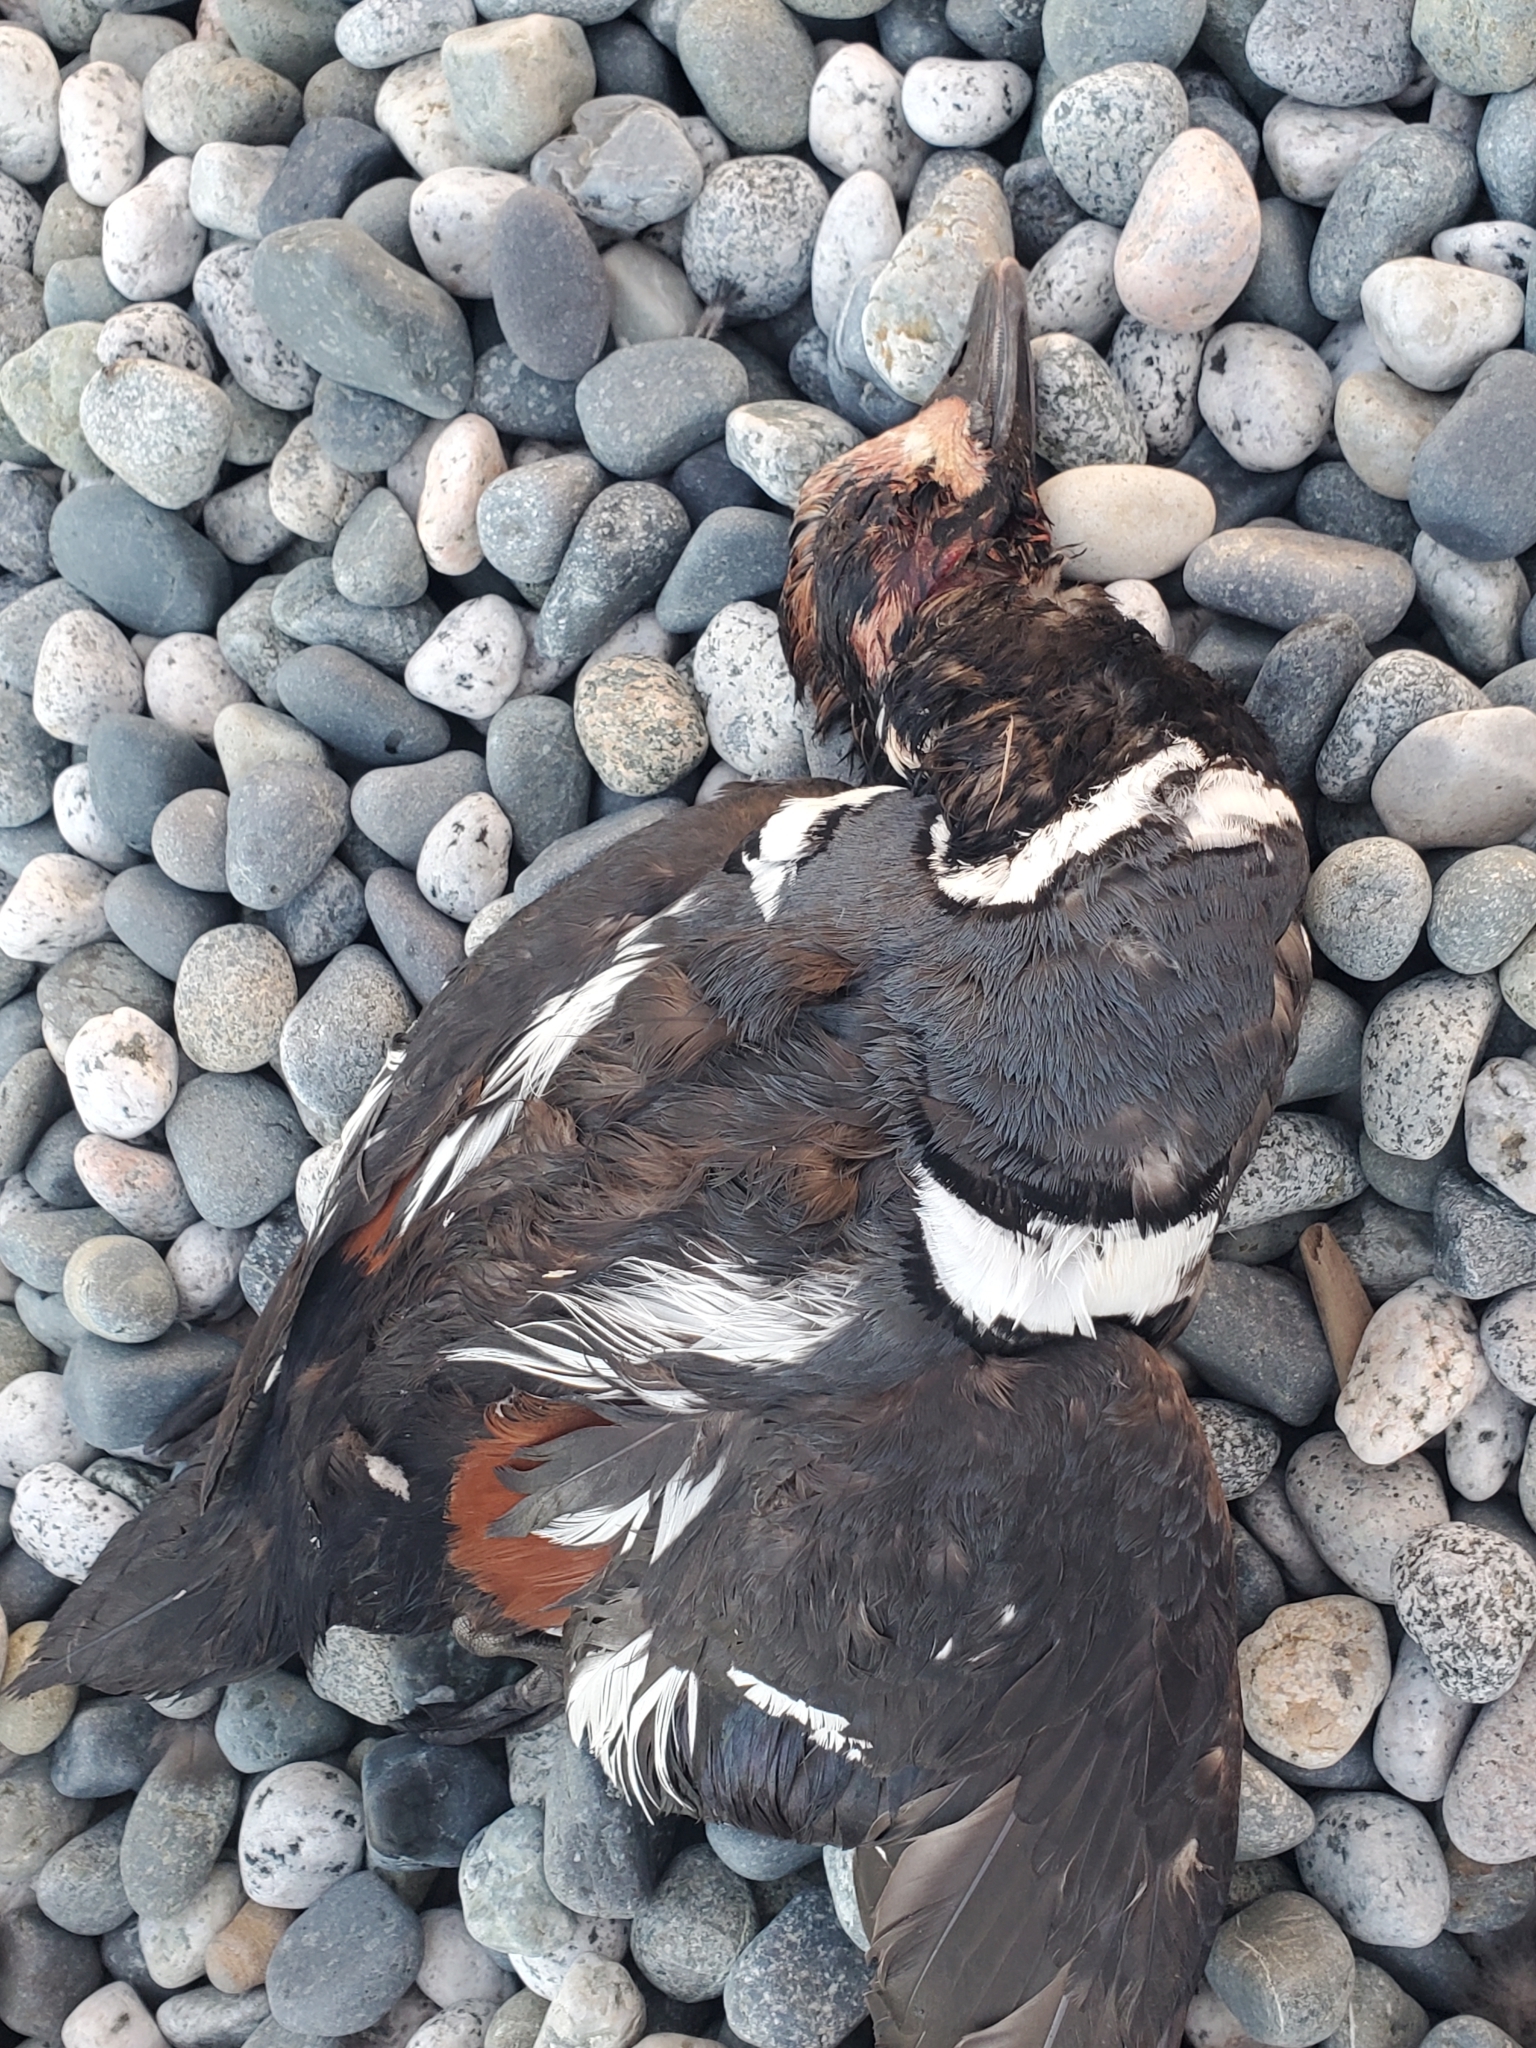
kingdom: Animalia
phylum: Chordata
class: Aves
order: Anseriformes
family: Anatidae
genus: Histrionicus
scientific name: Histrionicus histrionicus
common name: Harlequin duck
